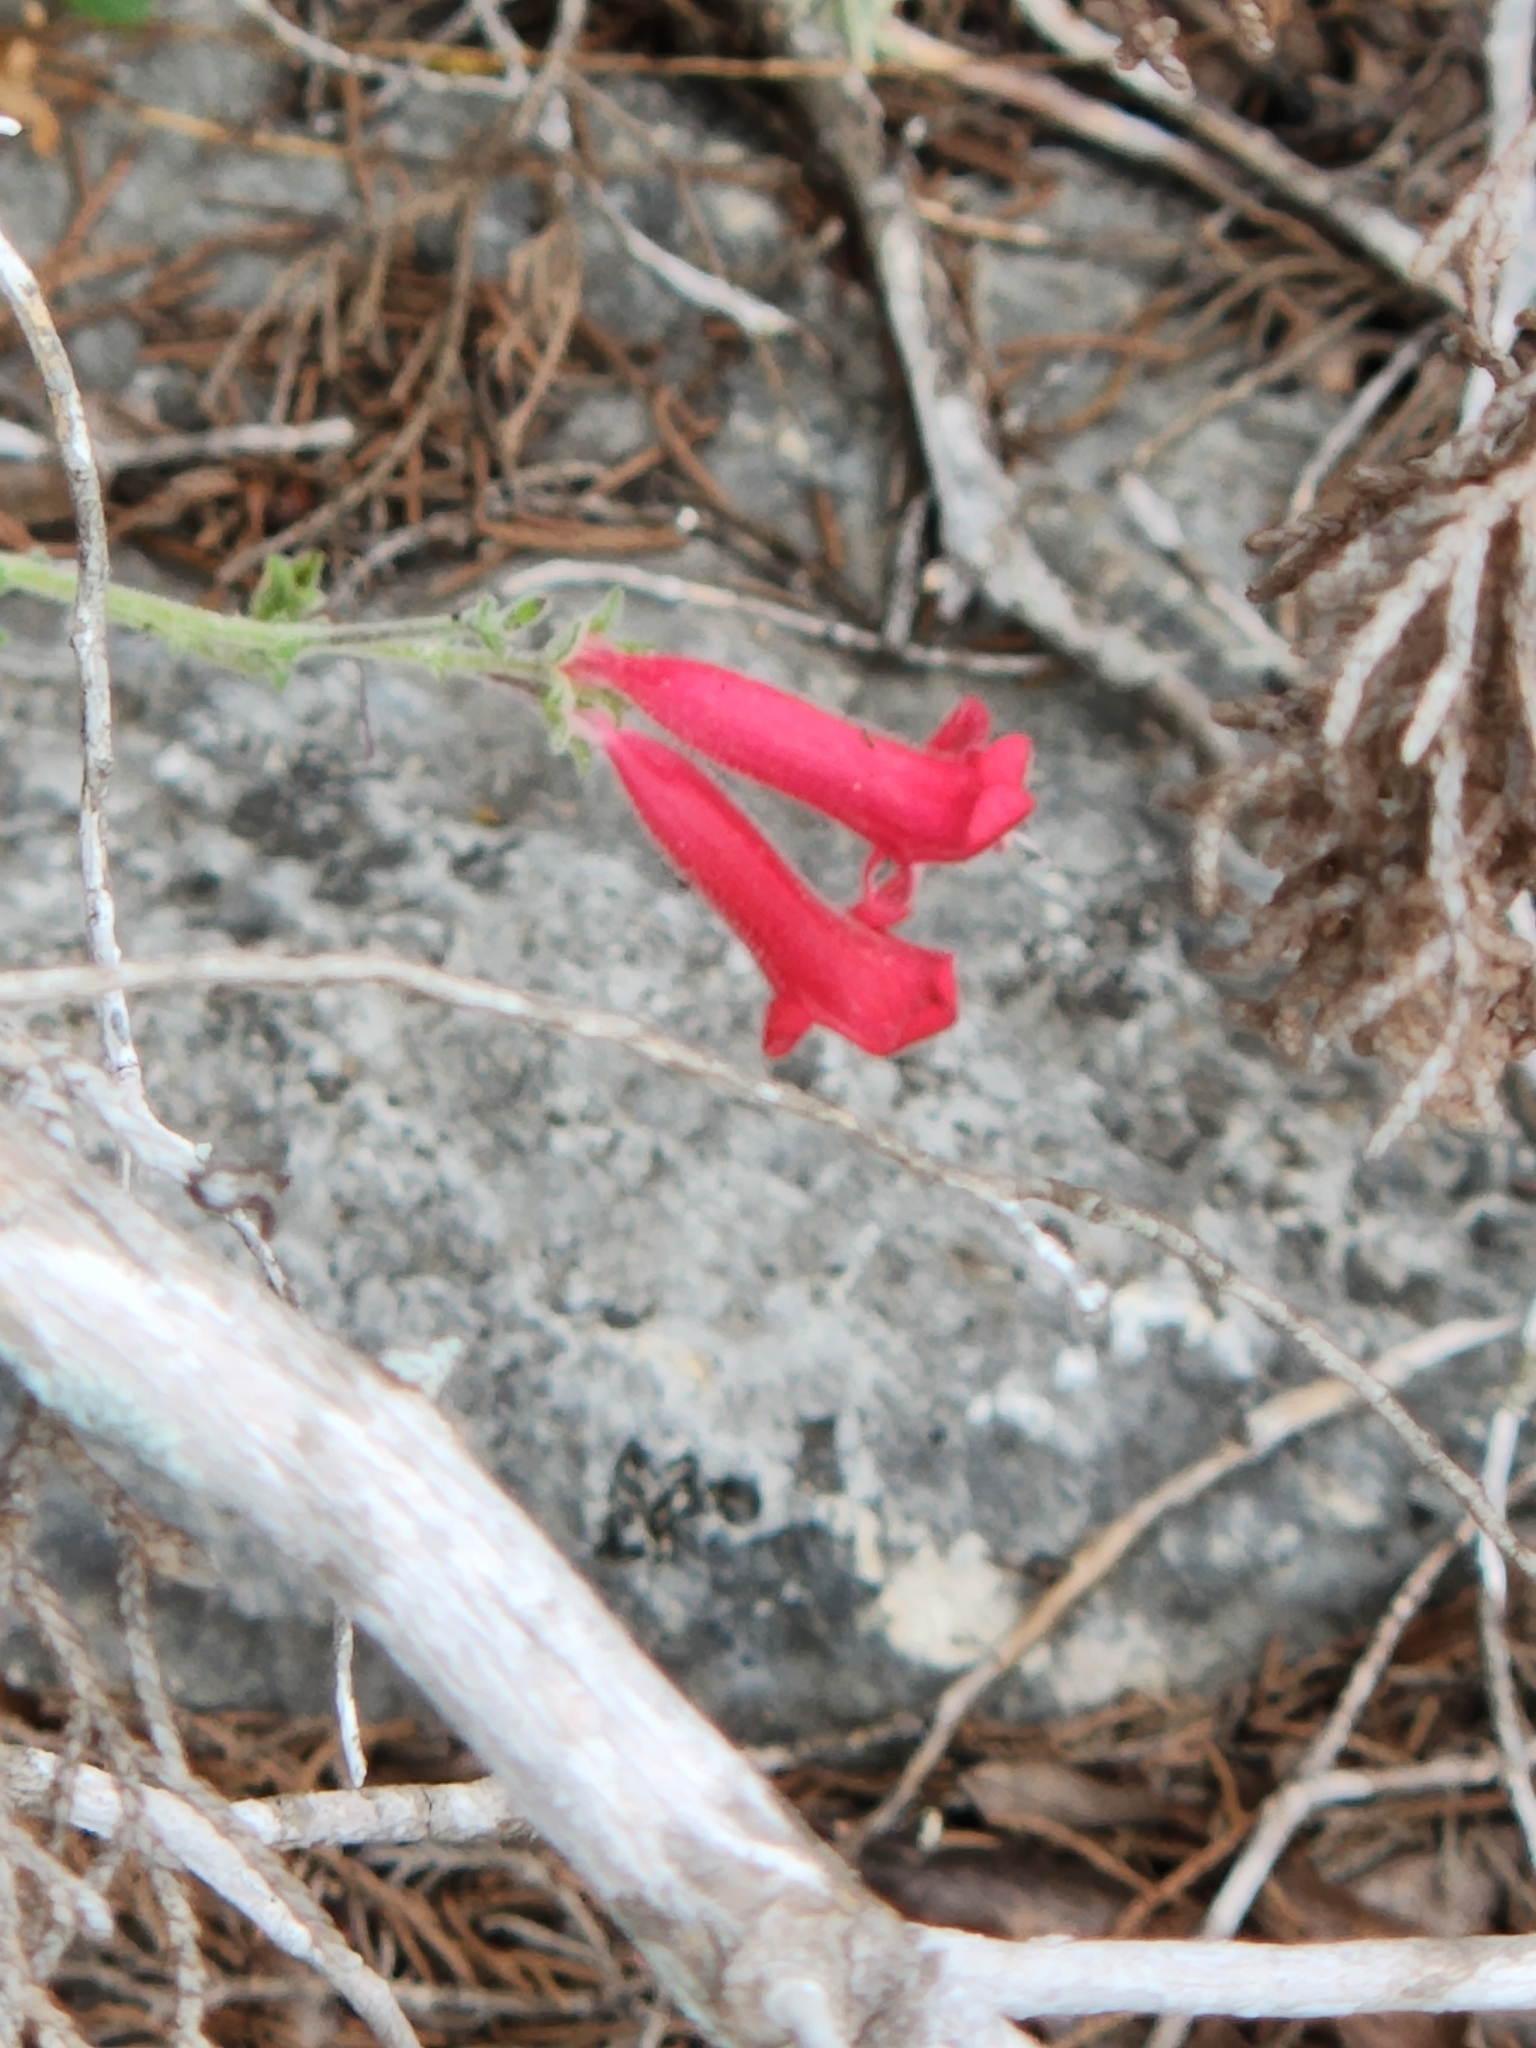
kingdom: Plantae
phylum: Tracheophyta
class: Magnoliopsida
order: Lamiales
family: Plantaginaceae
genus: Penstemon
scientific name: Penstemon baccharifolius
